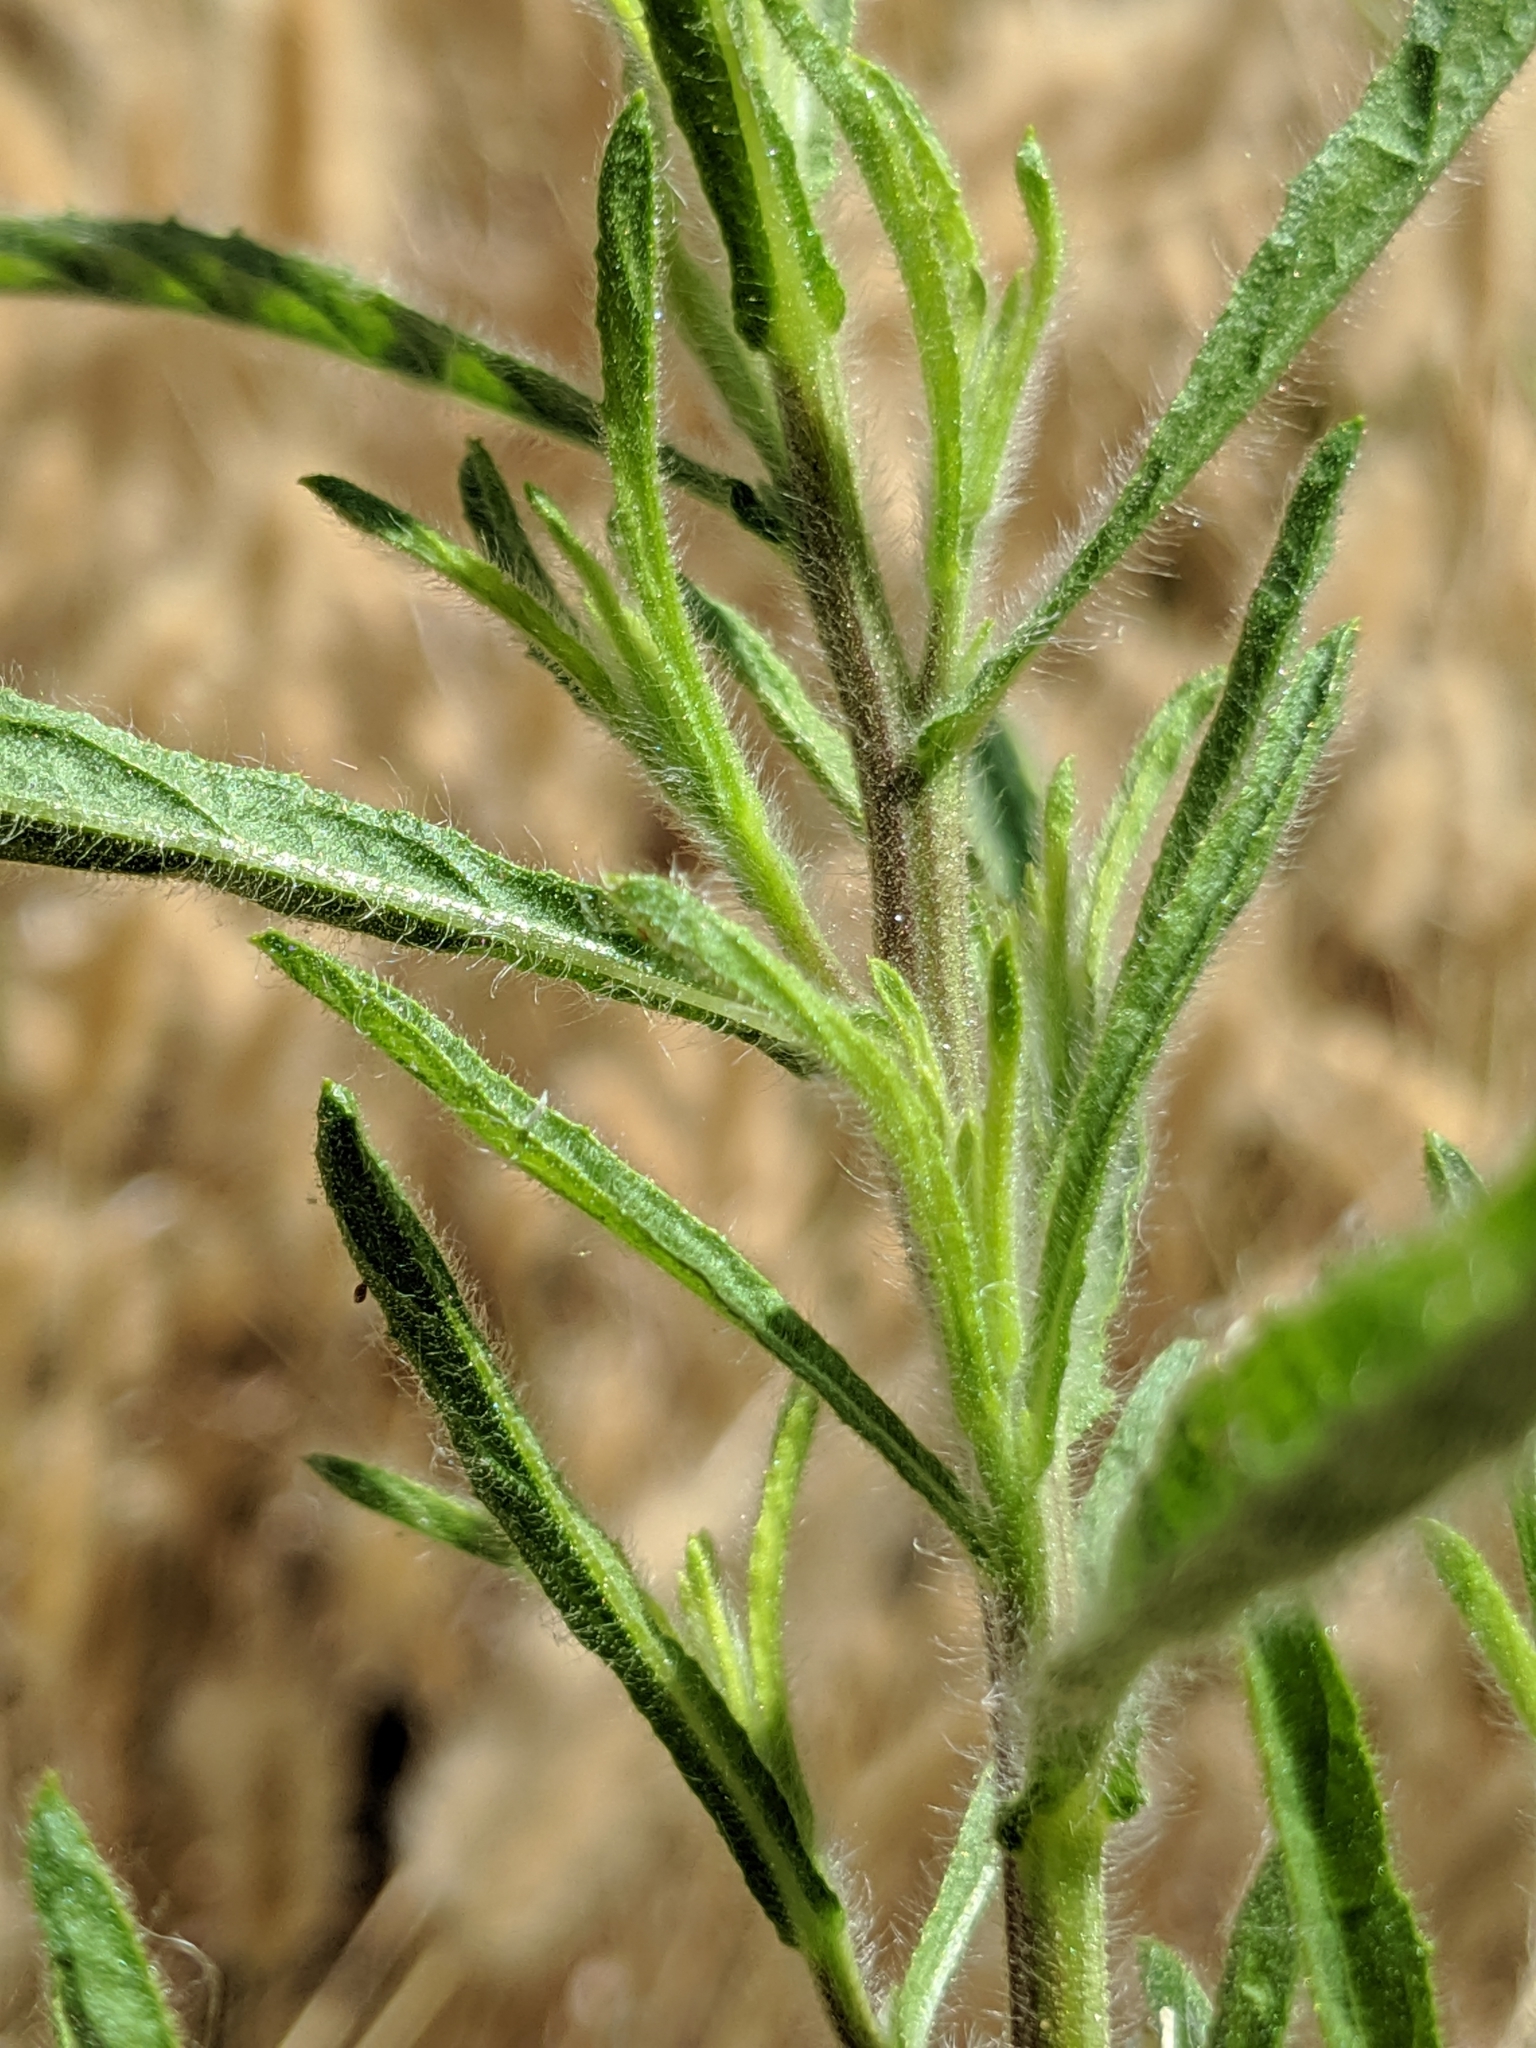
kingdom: Plantae
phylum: Tracheophyta
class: Magnoliopsida
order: Asterales
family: Asteraceae
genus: Dittrichia
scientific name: Dittrichia graveolens
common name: Stinking fleabane
